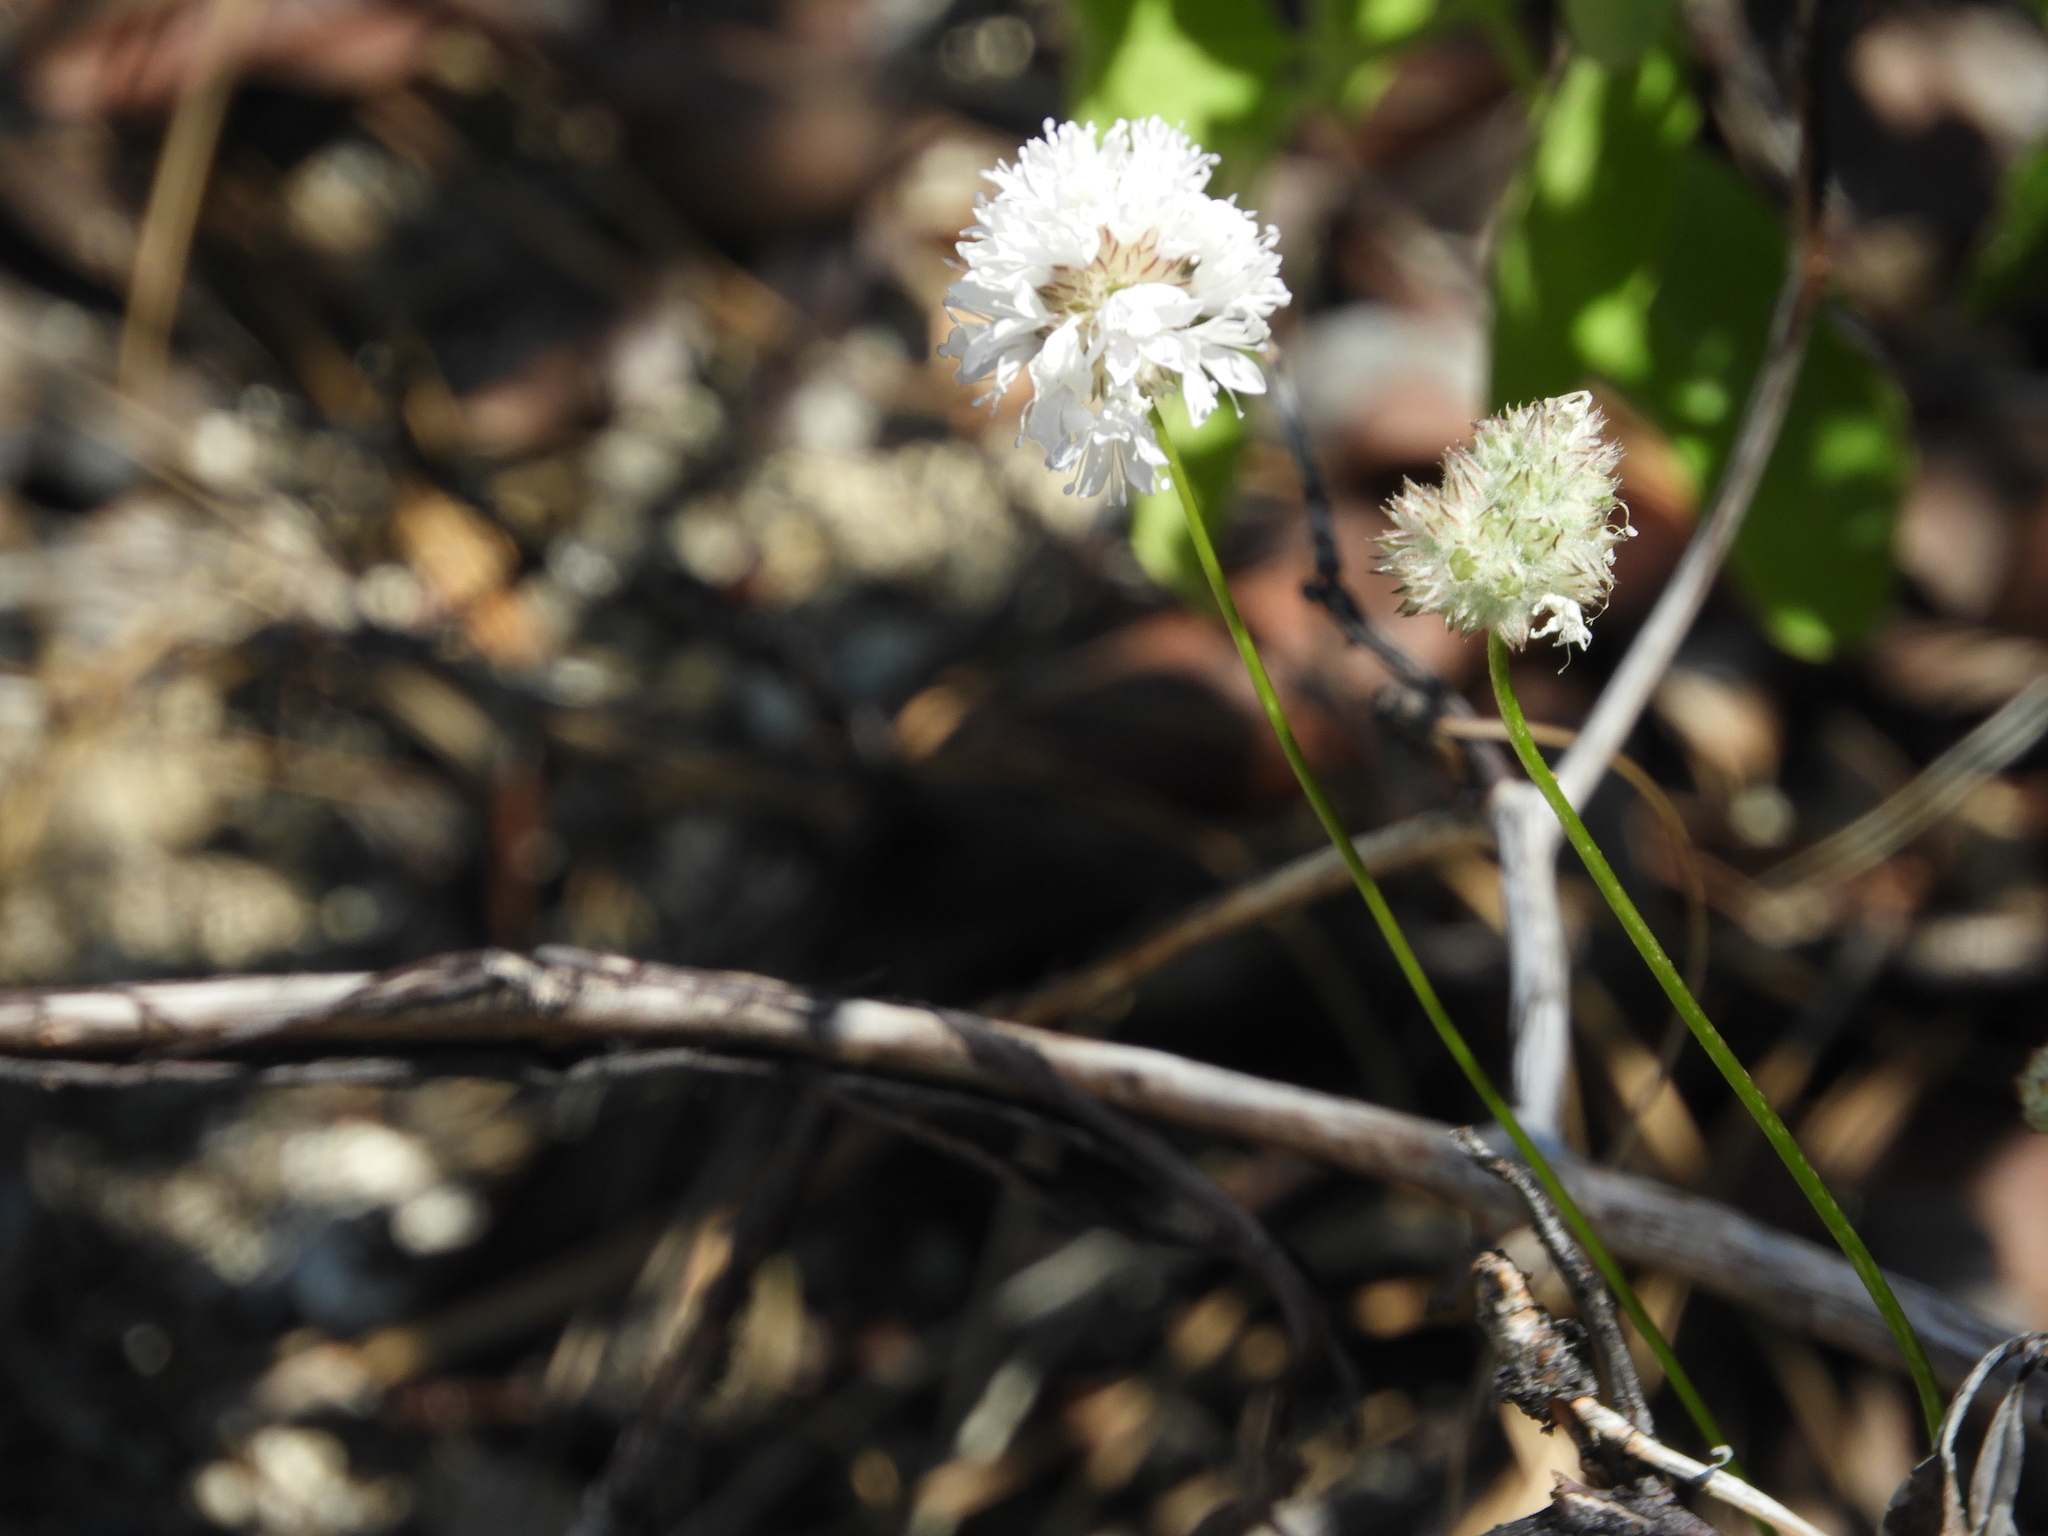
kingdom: Plantae
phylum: Tracheophyta
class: Magnoliopsida
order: Ericales
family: Polemoniaceae
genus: Gilia
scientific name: Gilia capitata
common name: Bluehead gilia
